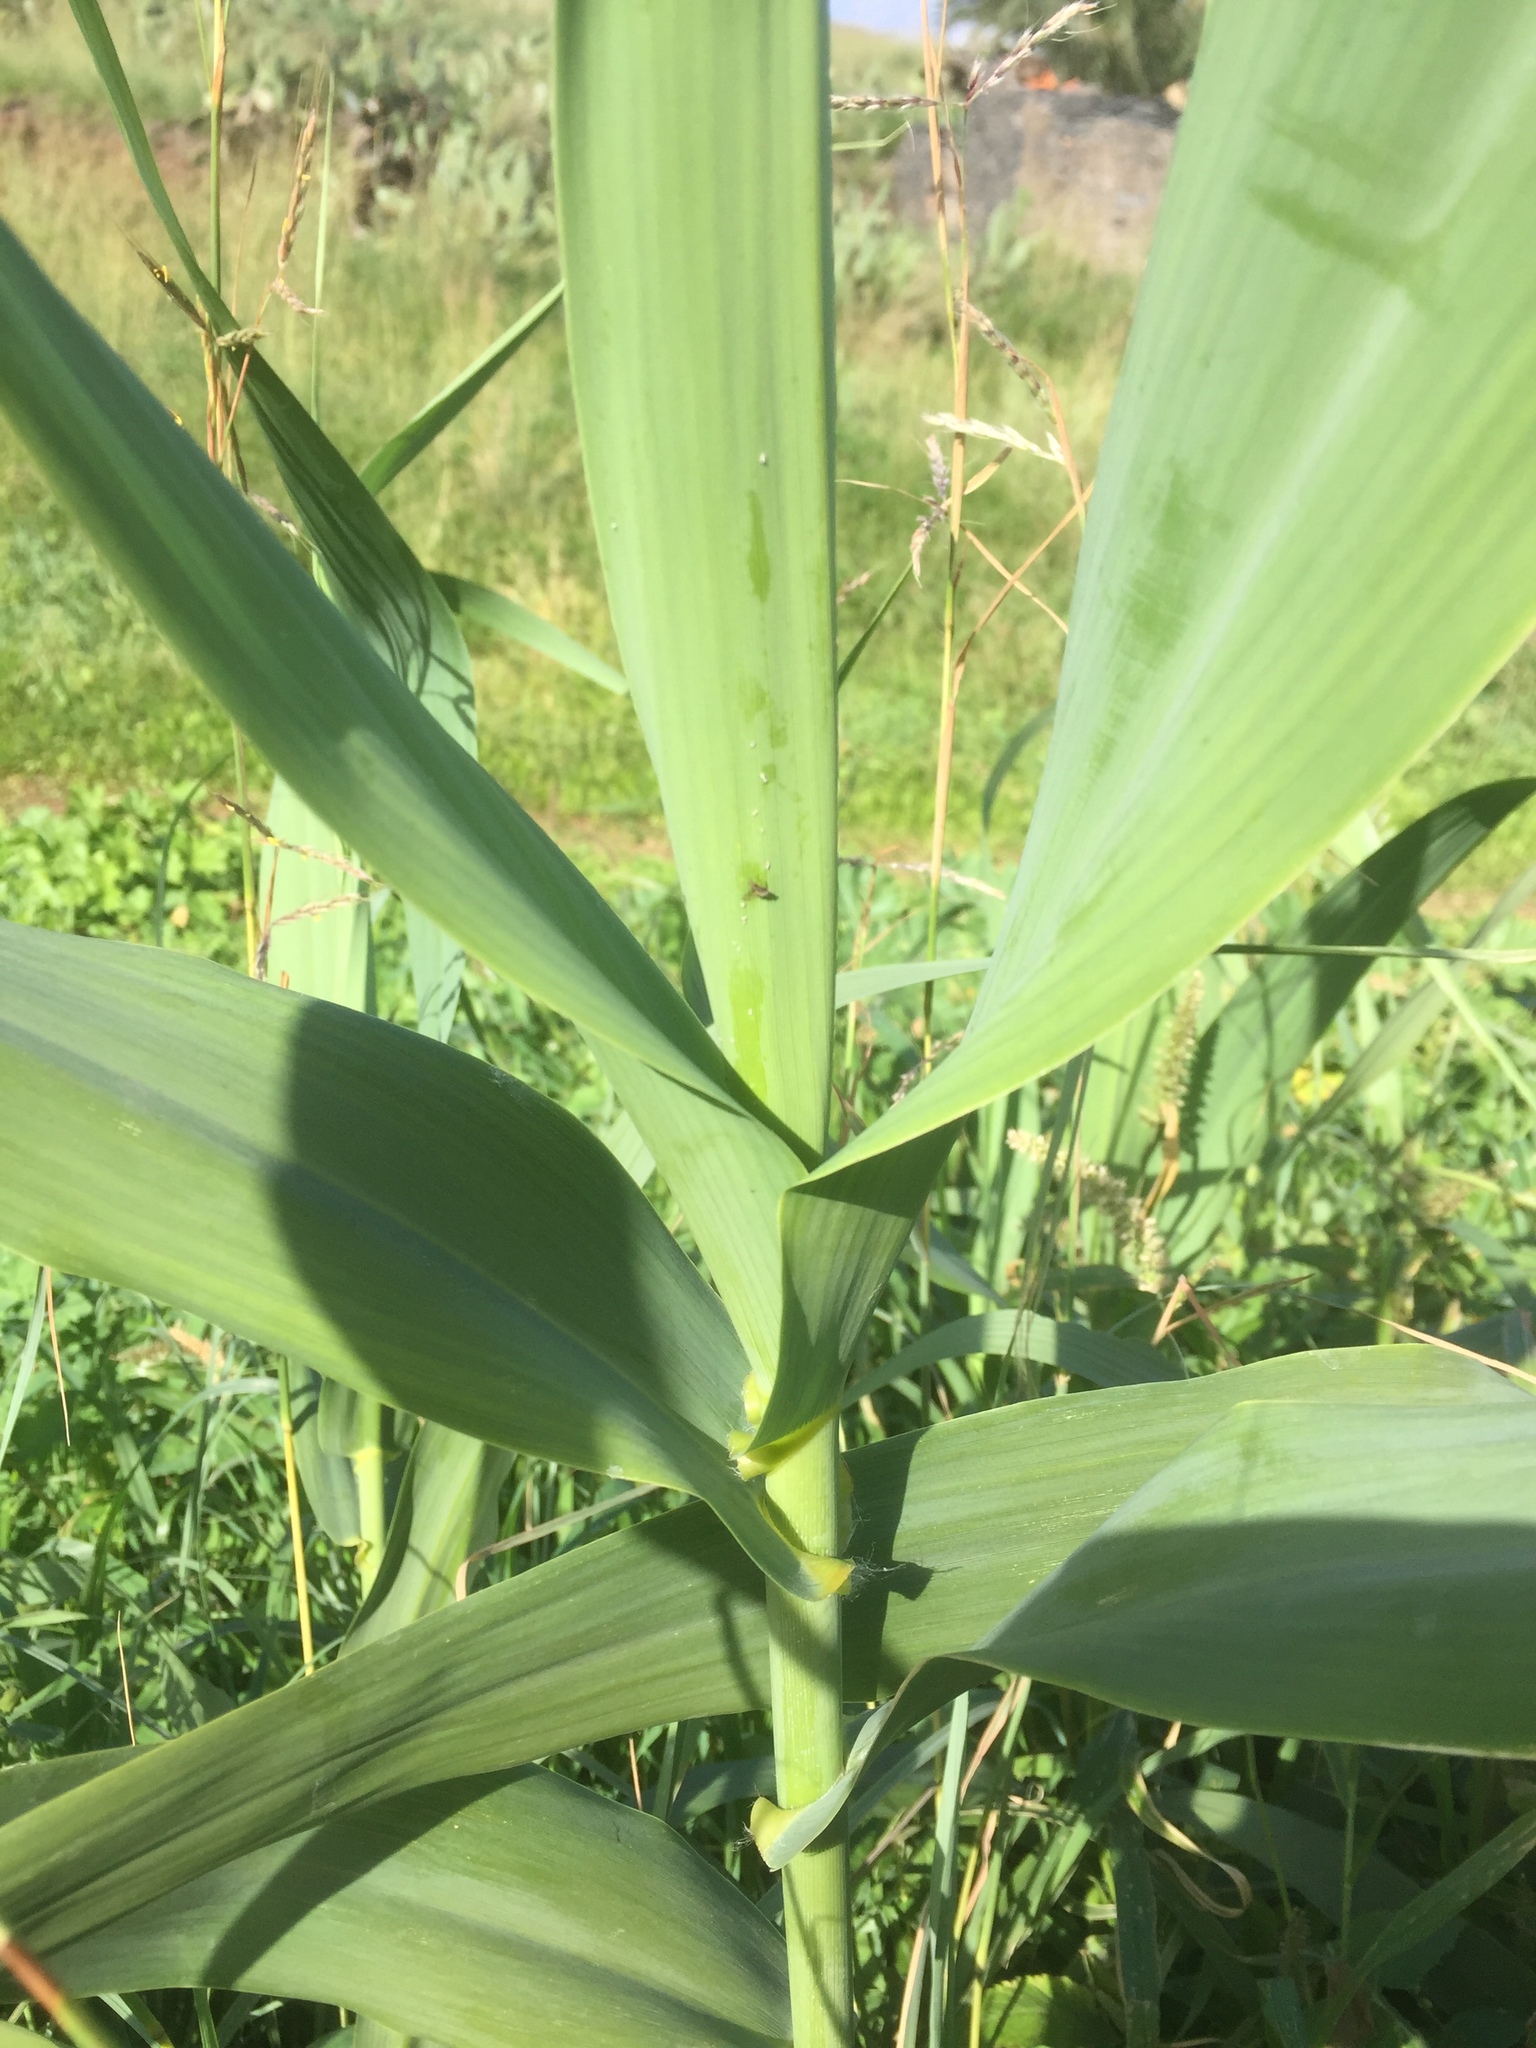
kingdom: Plantae
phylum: Tracheophyta
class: Liliopsida
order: Poales
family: Poaceae
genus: Arundo
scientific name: Arundo donax
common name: Giant reed
